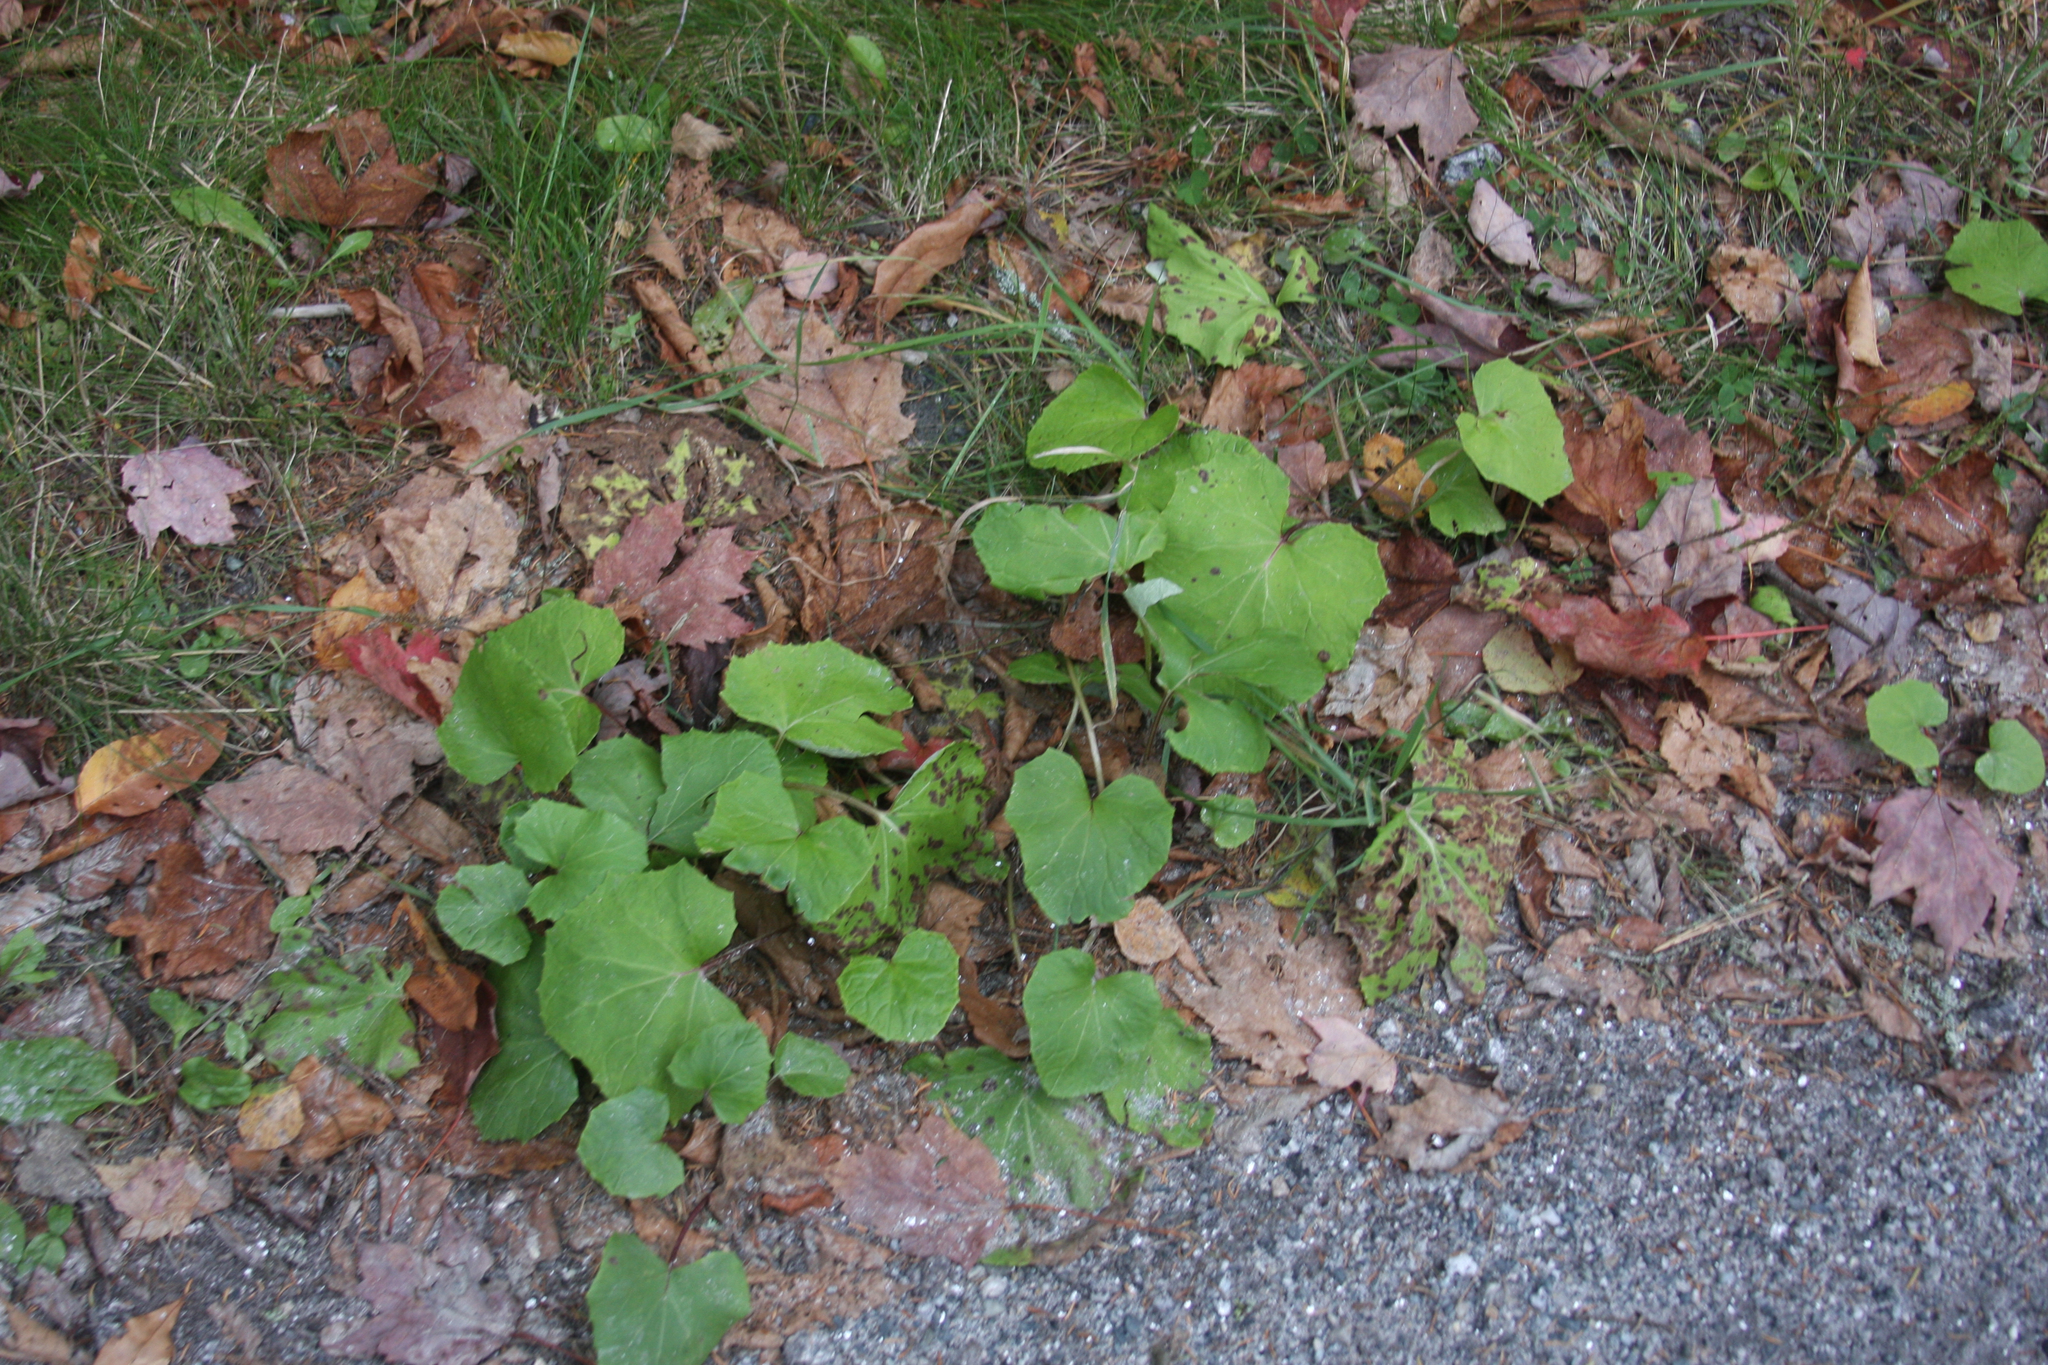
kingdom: Plantae
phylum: Tracheophyta
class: Magnoliopsida
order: Asterales
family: Asteraceae
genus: Tussilago
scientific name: Tussilago farfara
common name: Coltsfoot
